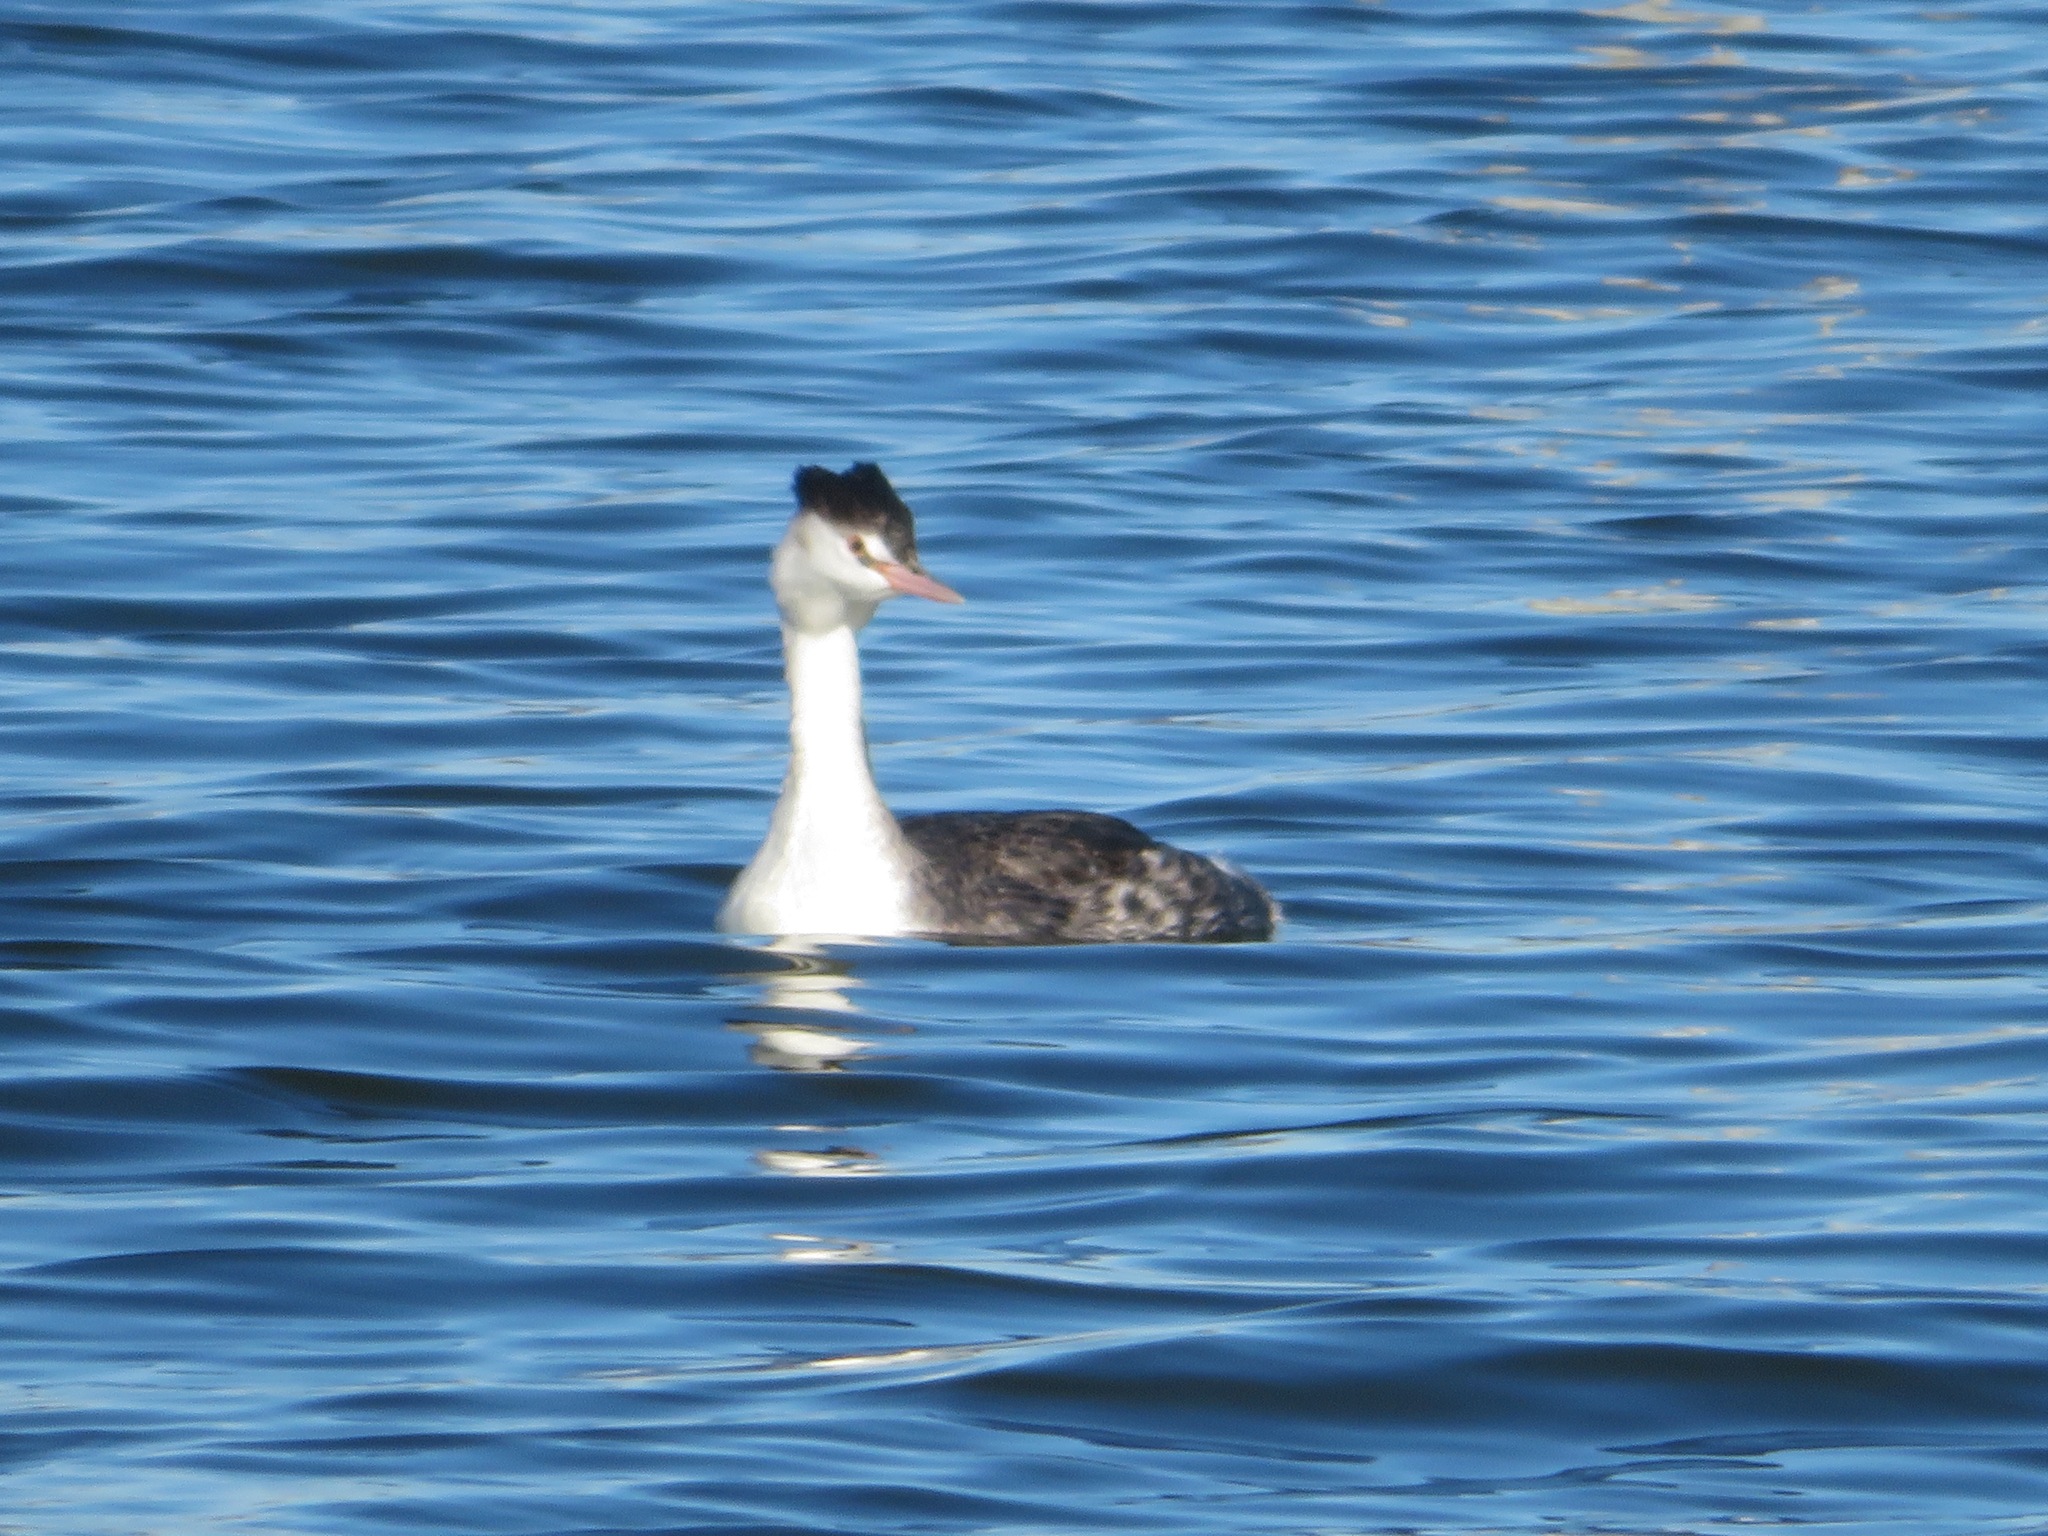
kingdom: Animalia
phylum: Chordata
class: Aves
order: Podicipediformes
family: Podicipedidae
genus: Podiceps
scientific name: Podiceps cristatus
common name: Great crested grebe
